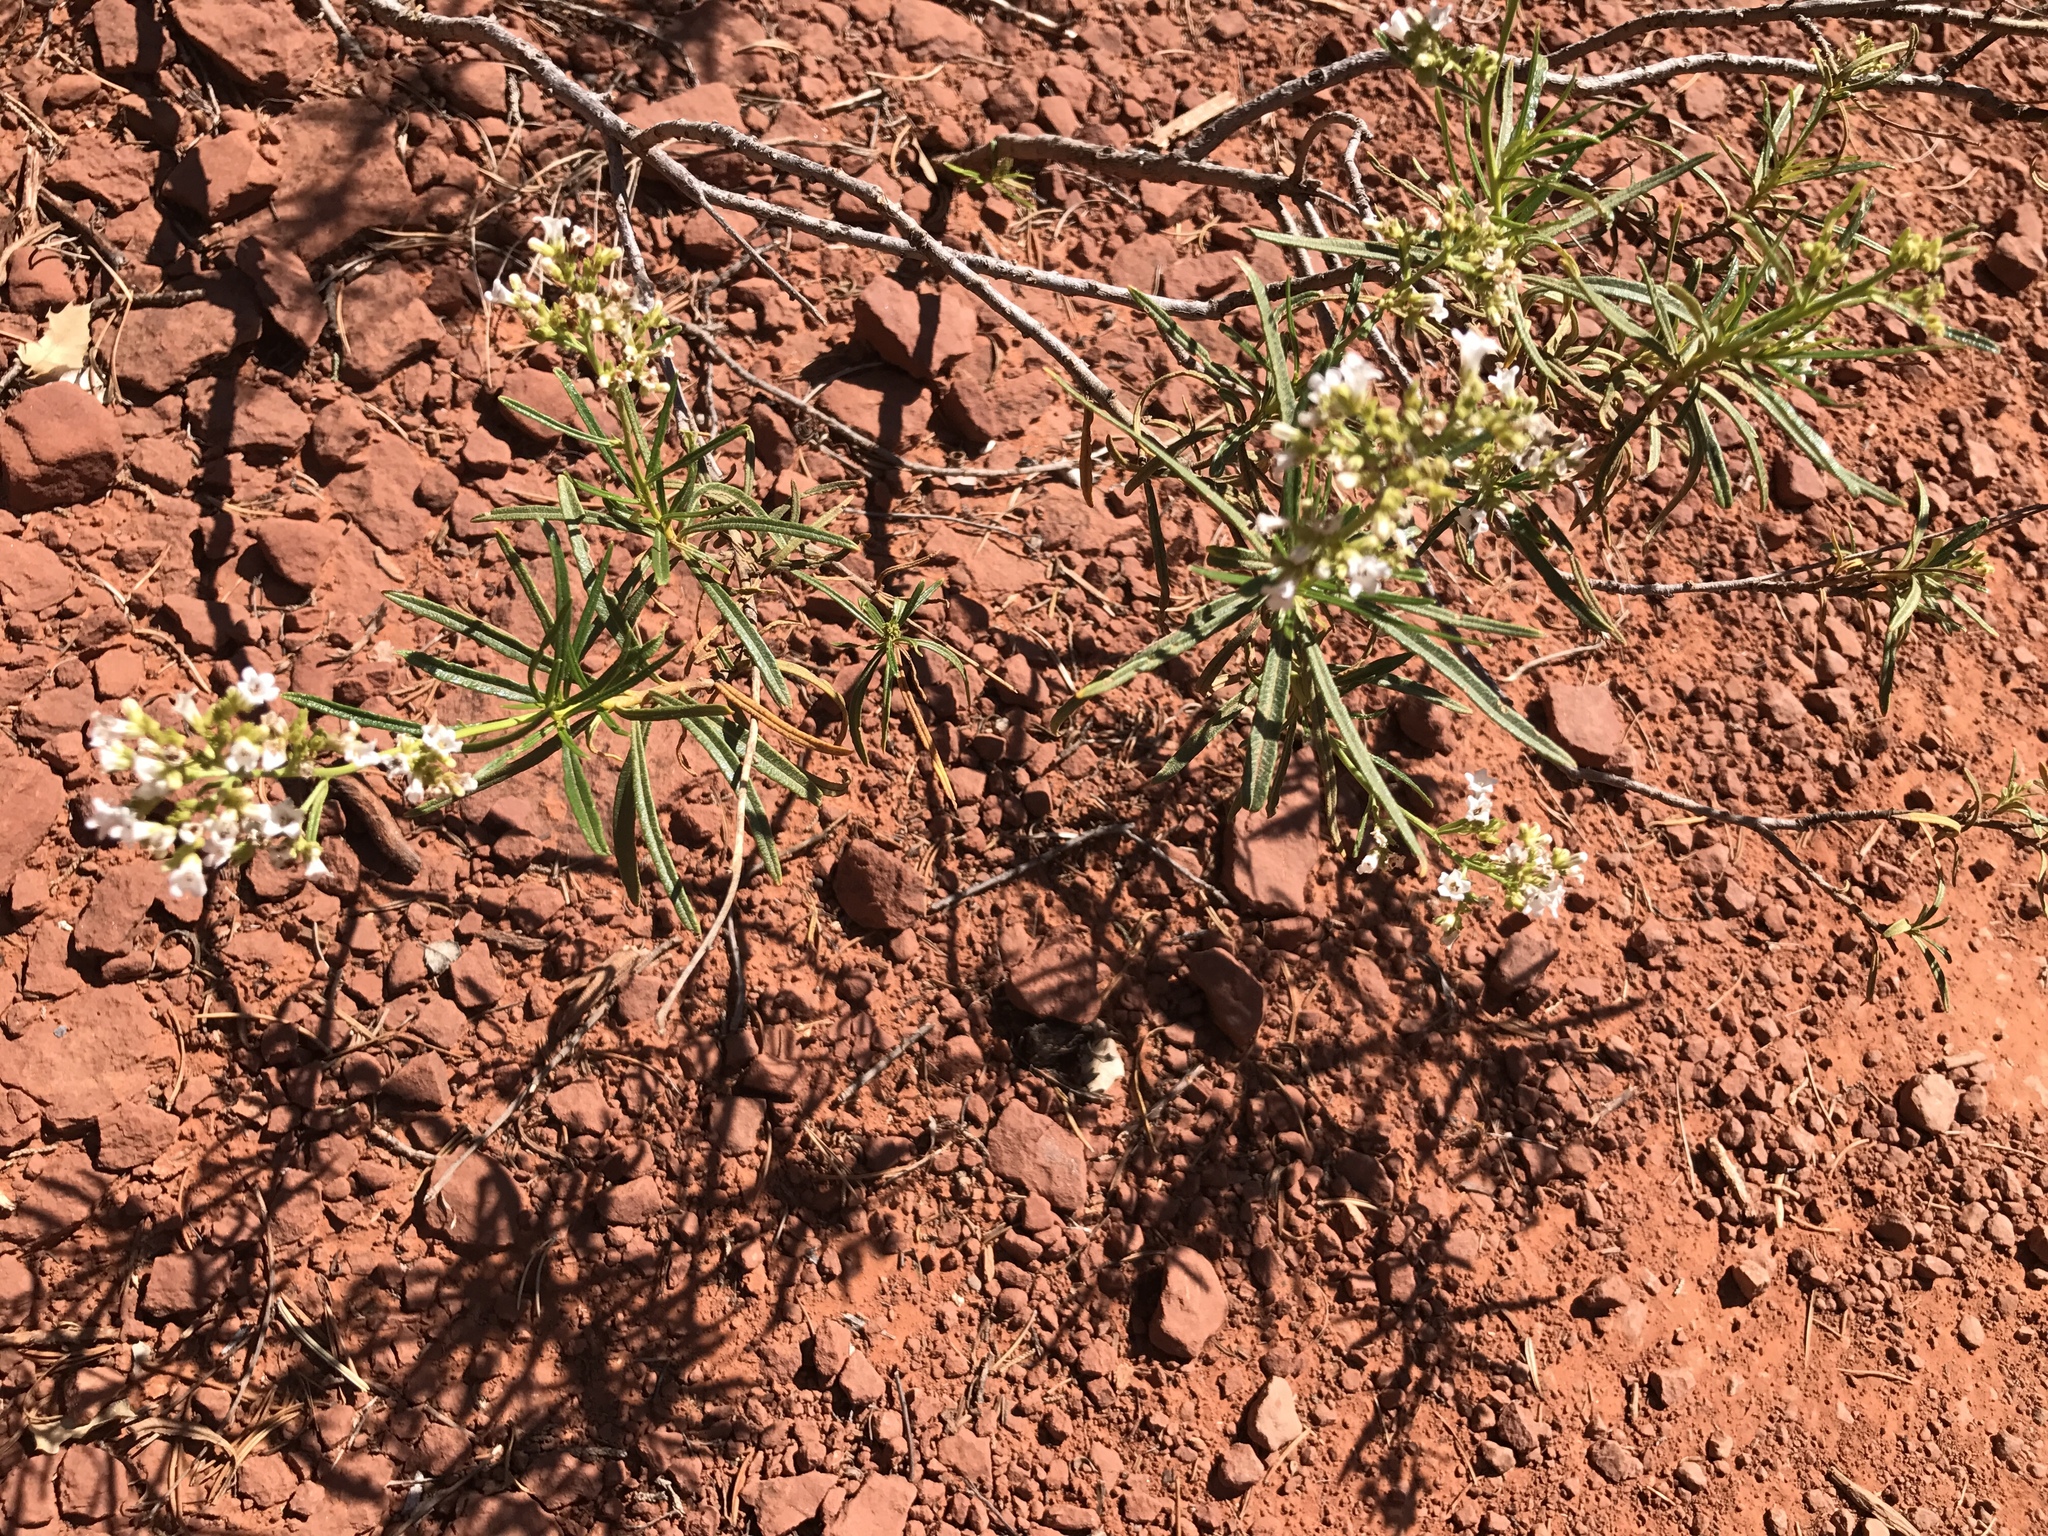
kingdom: Plantae
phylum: Tracheophyta
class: Magnoliopsida
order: Boraginales
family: Namaceae
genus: Eriodictyon
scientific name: Eriodictyon angustifolium
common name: Narrow-leaf yerba santa
